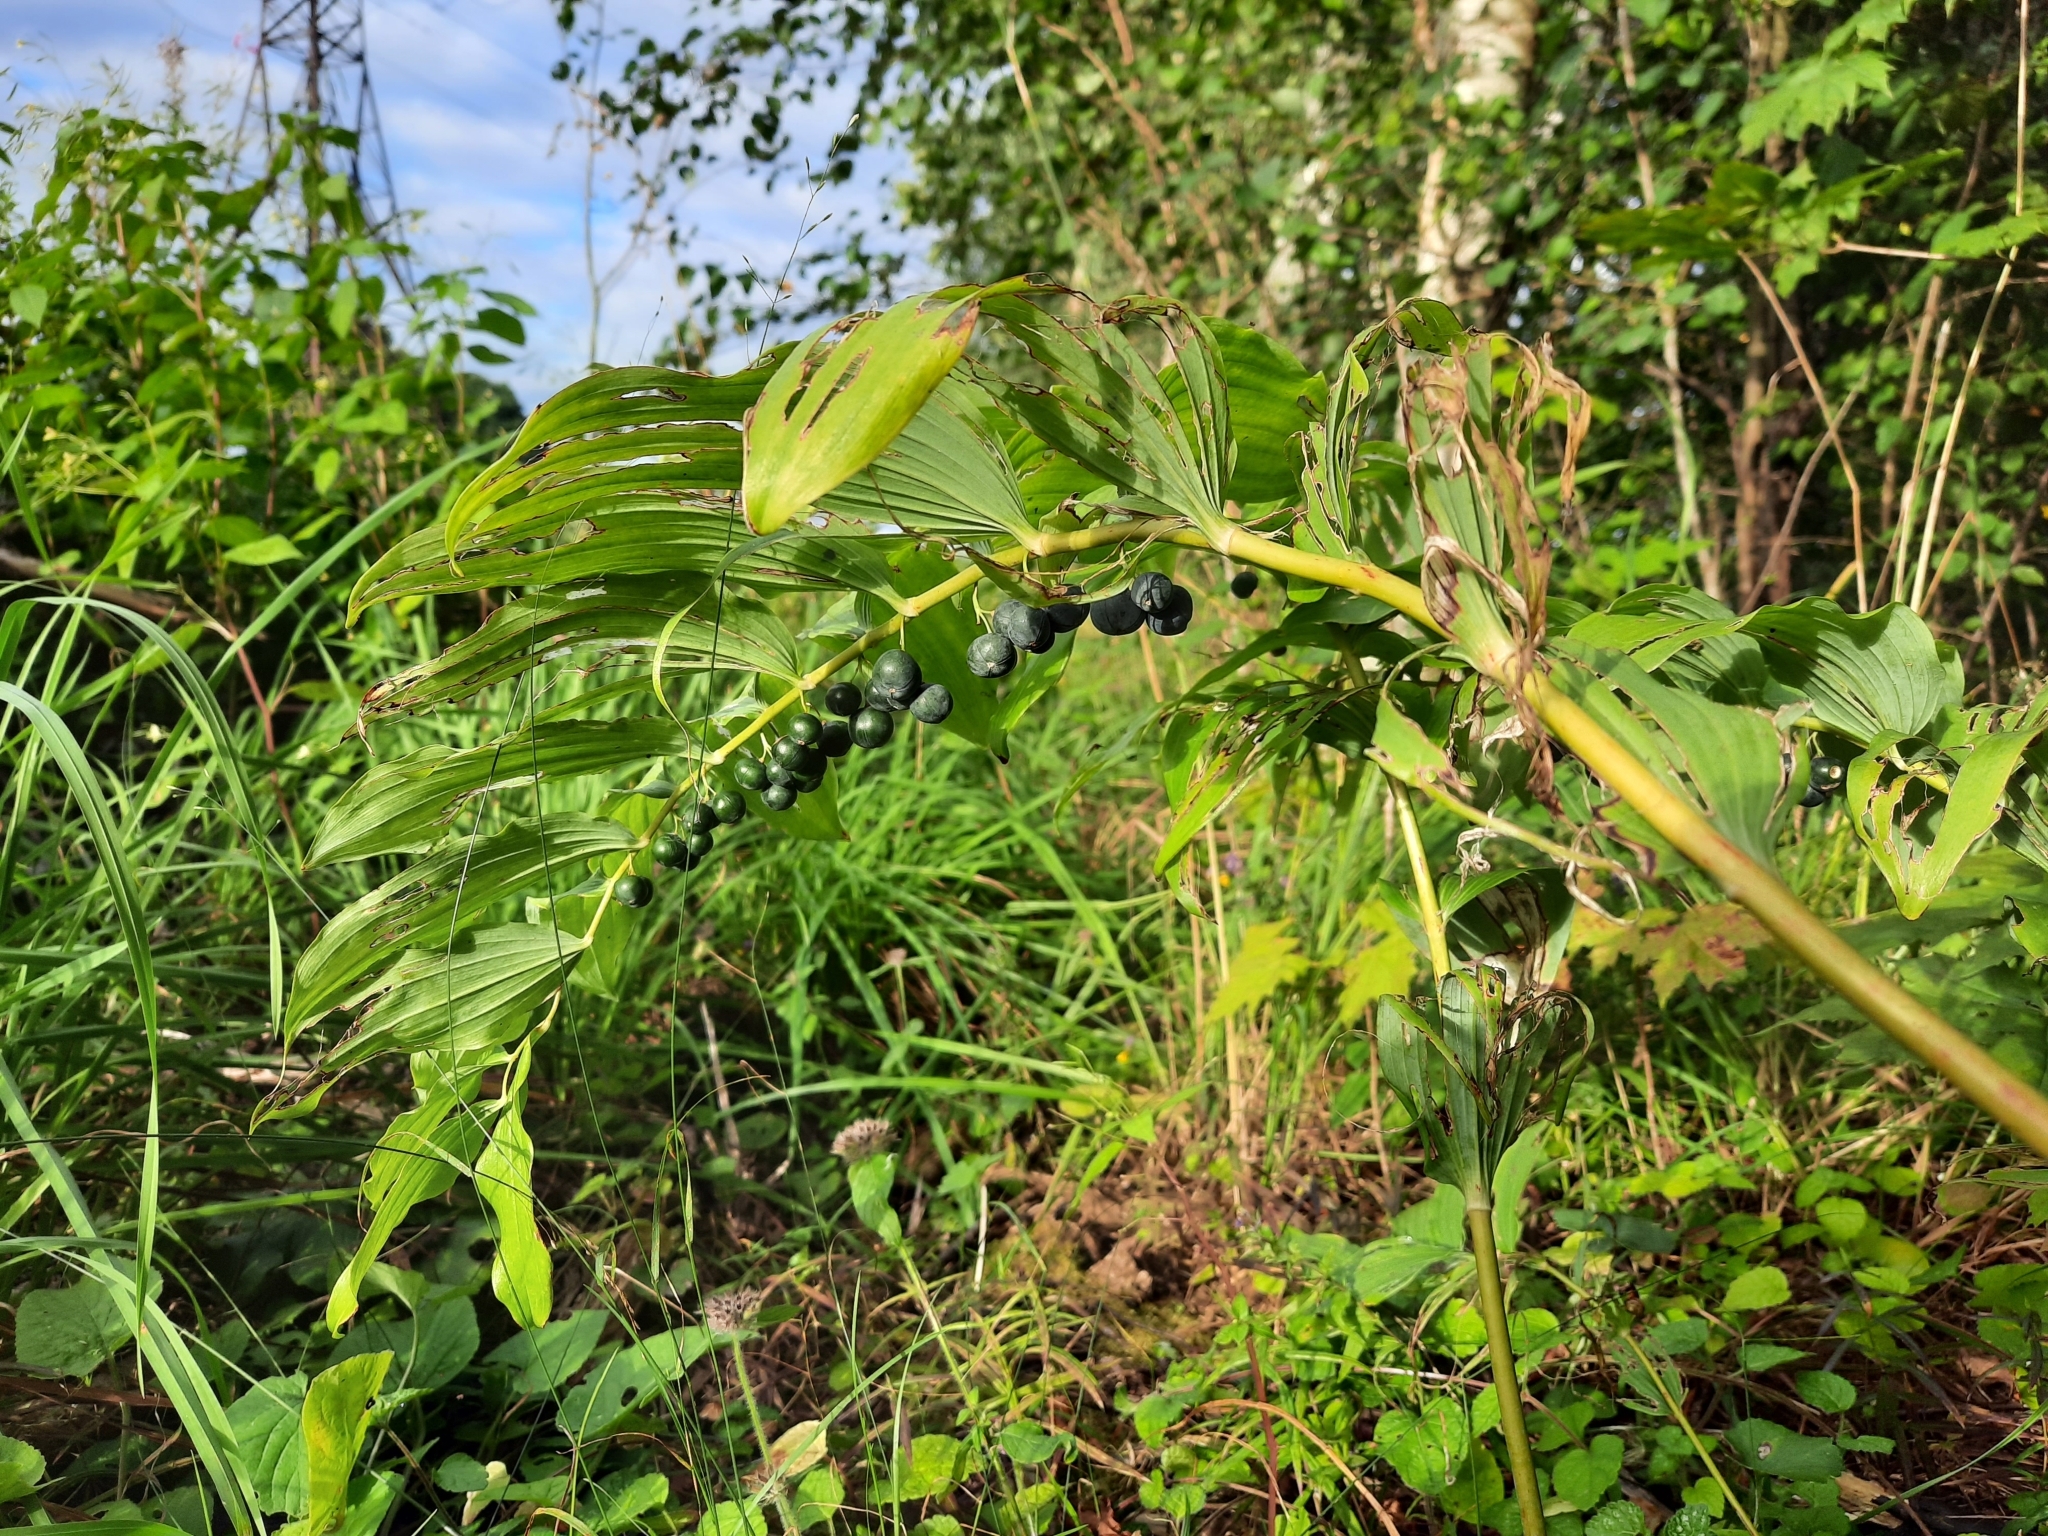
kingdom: Plantae
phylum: Tracheophyta
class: Liliopsida
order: Asparagales
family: Asparagaceae
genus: Polygonatum
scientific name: Polygonatum multiflorum
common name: Solomon's-seal
